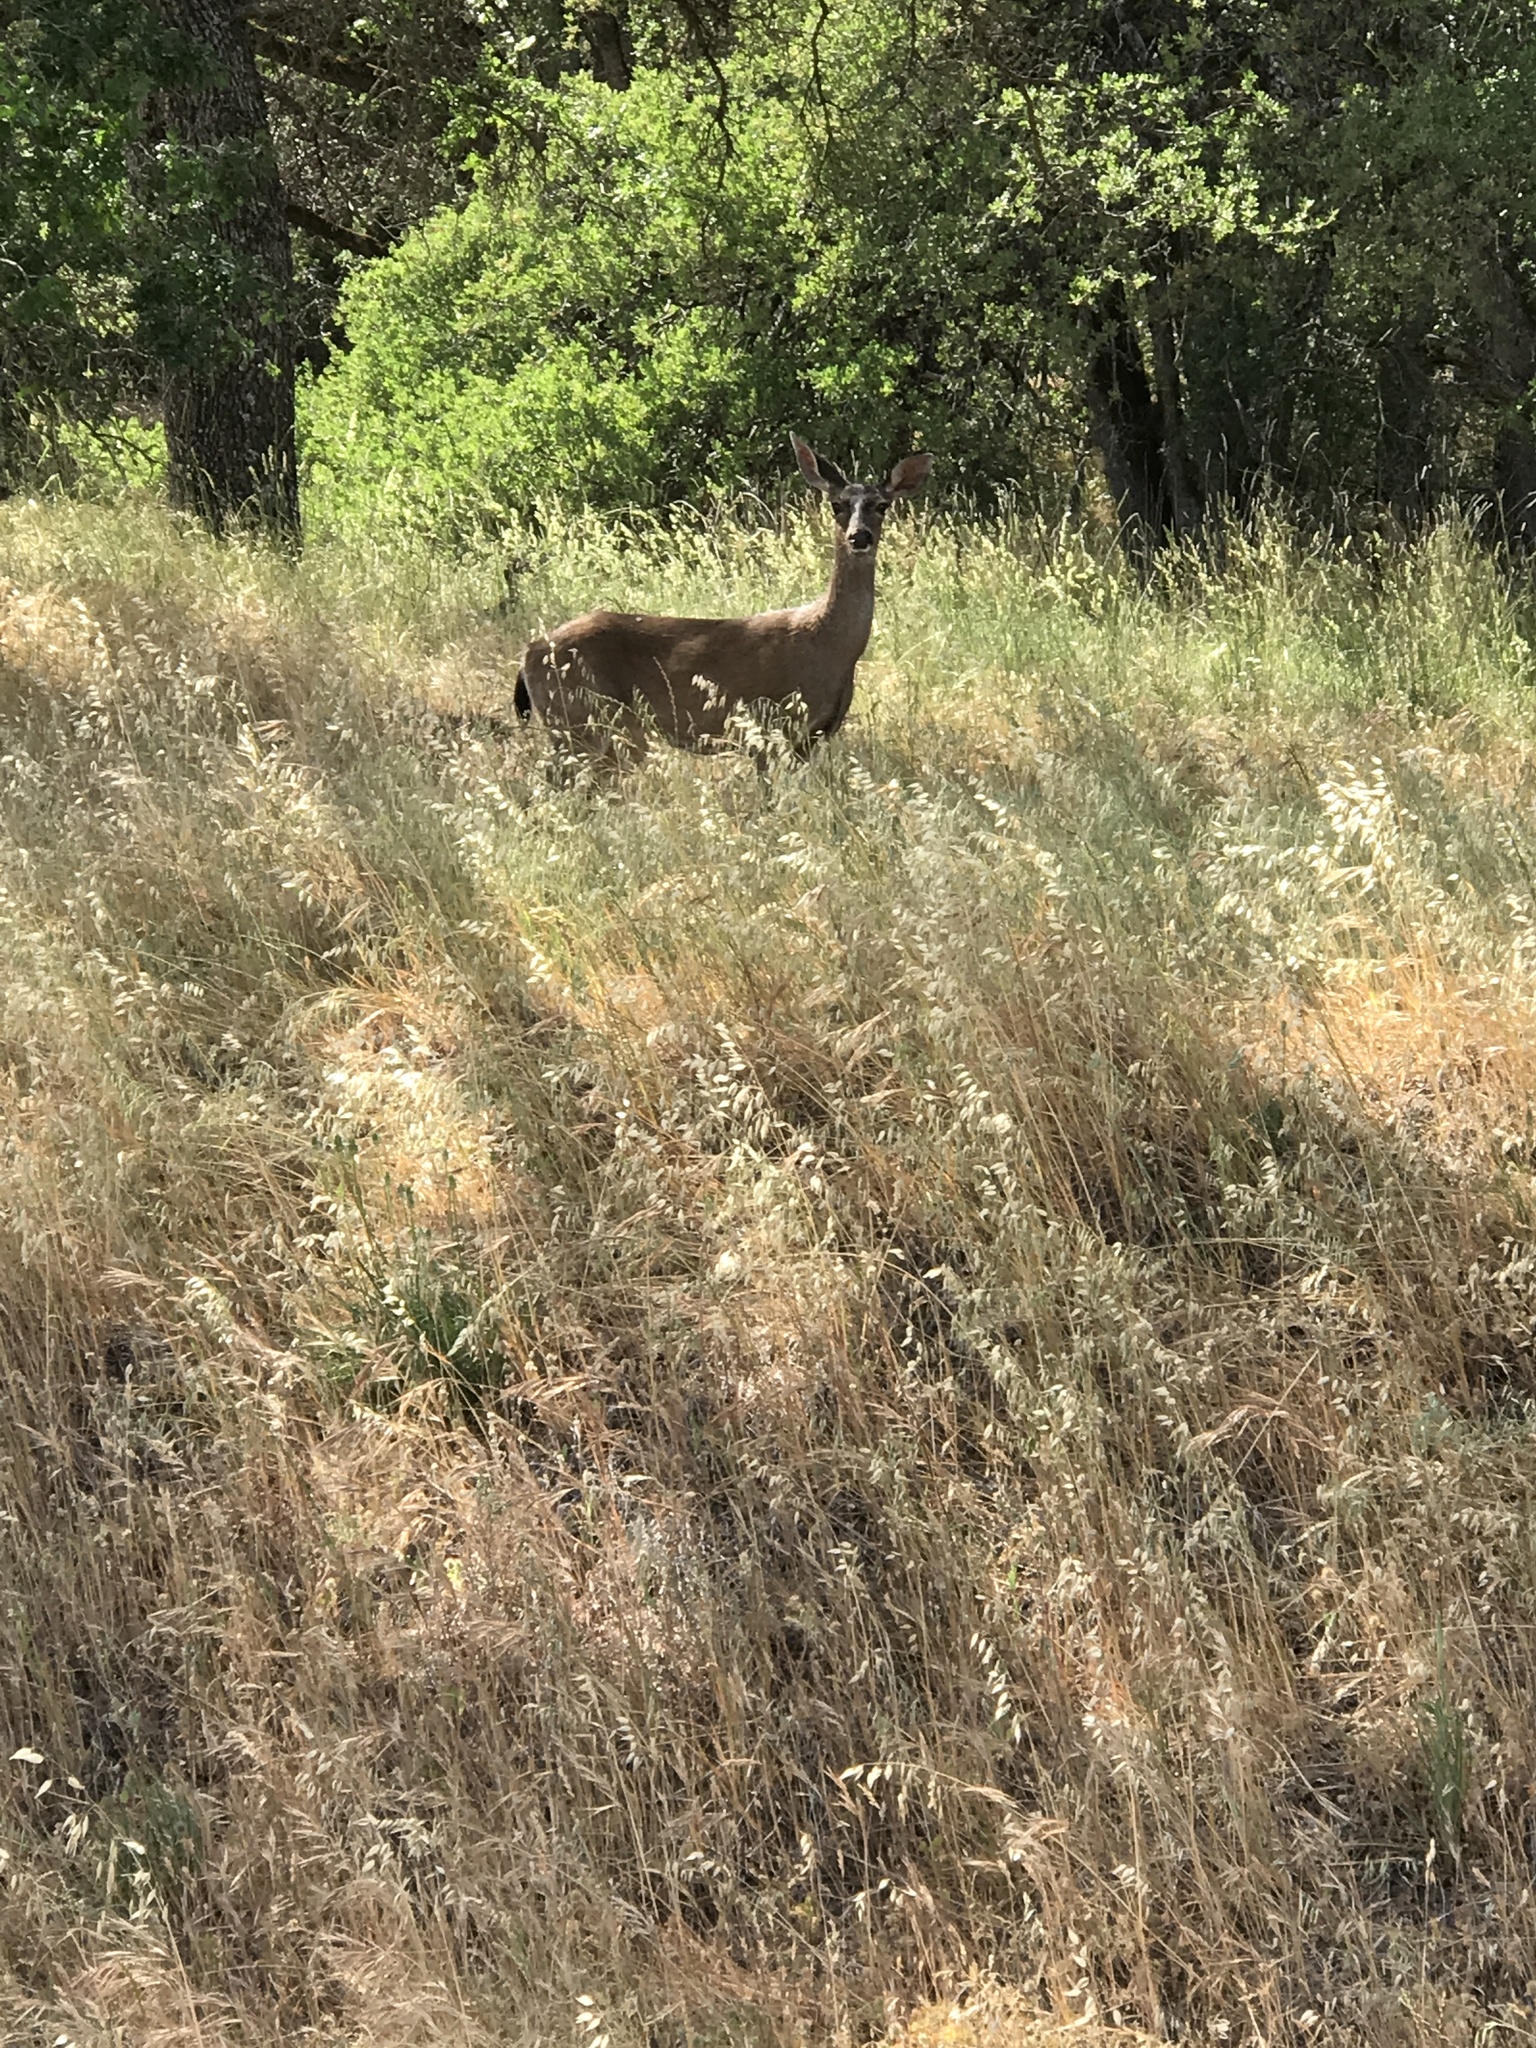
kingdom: Animalia
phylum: Chordata
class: Mammalia
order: Artiodactyla
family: Cervidae
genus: Odocoileus
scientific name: Odocoileus hemionus
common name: Mule deer
